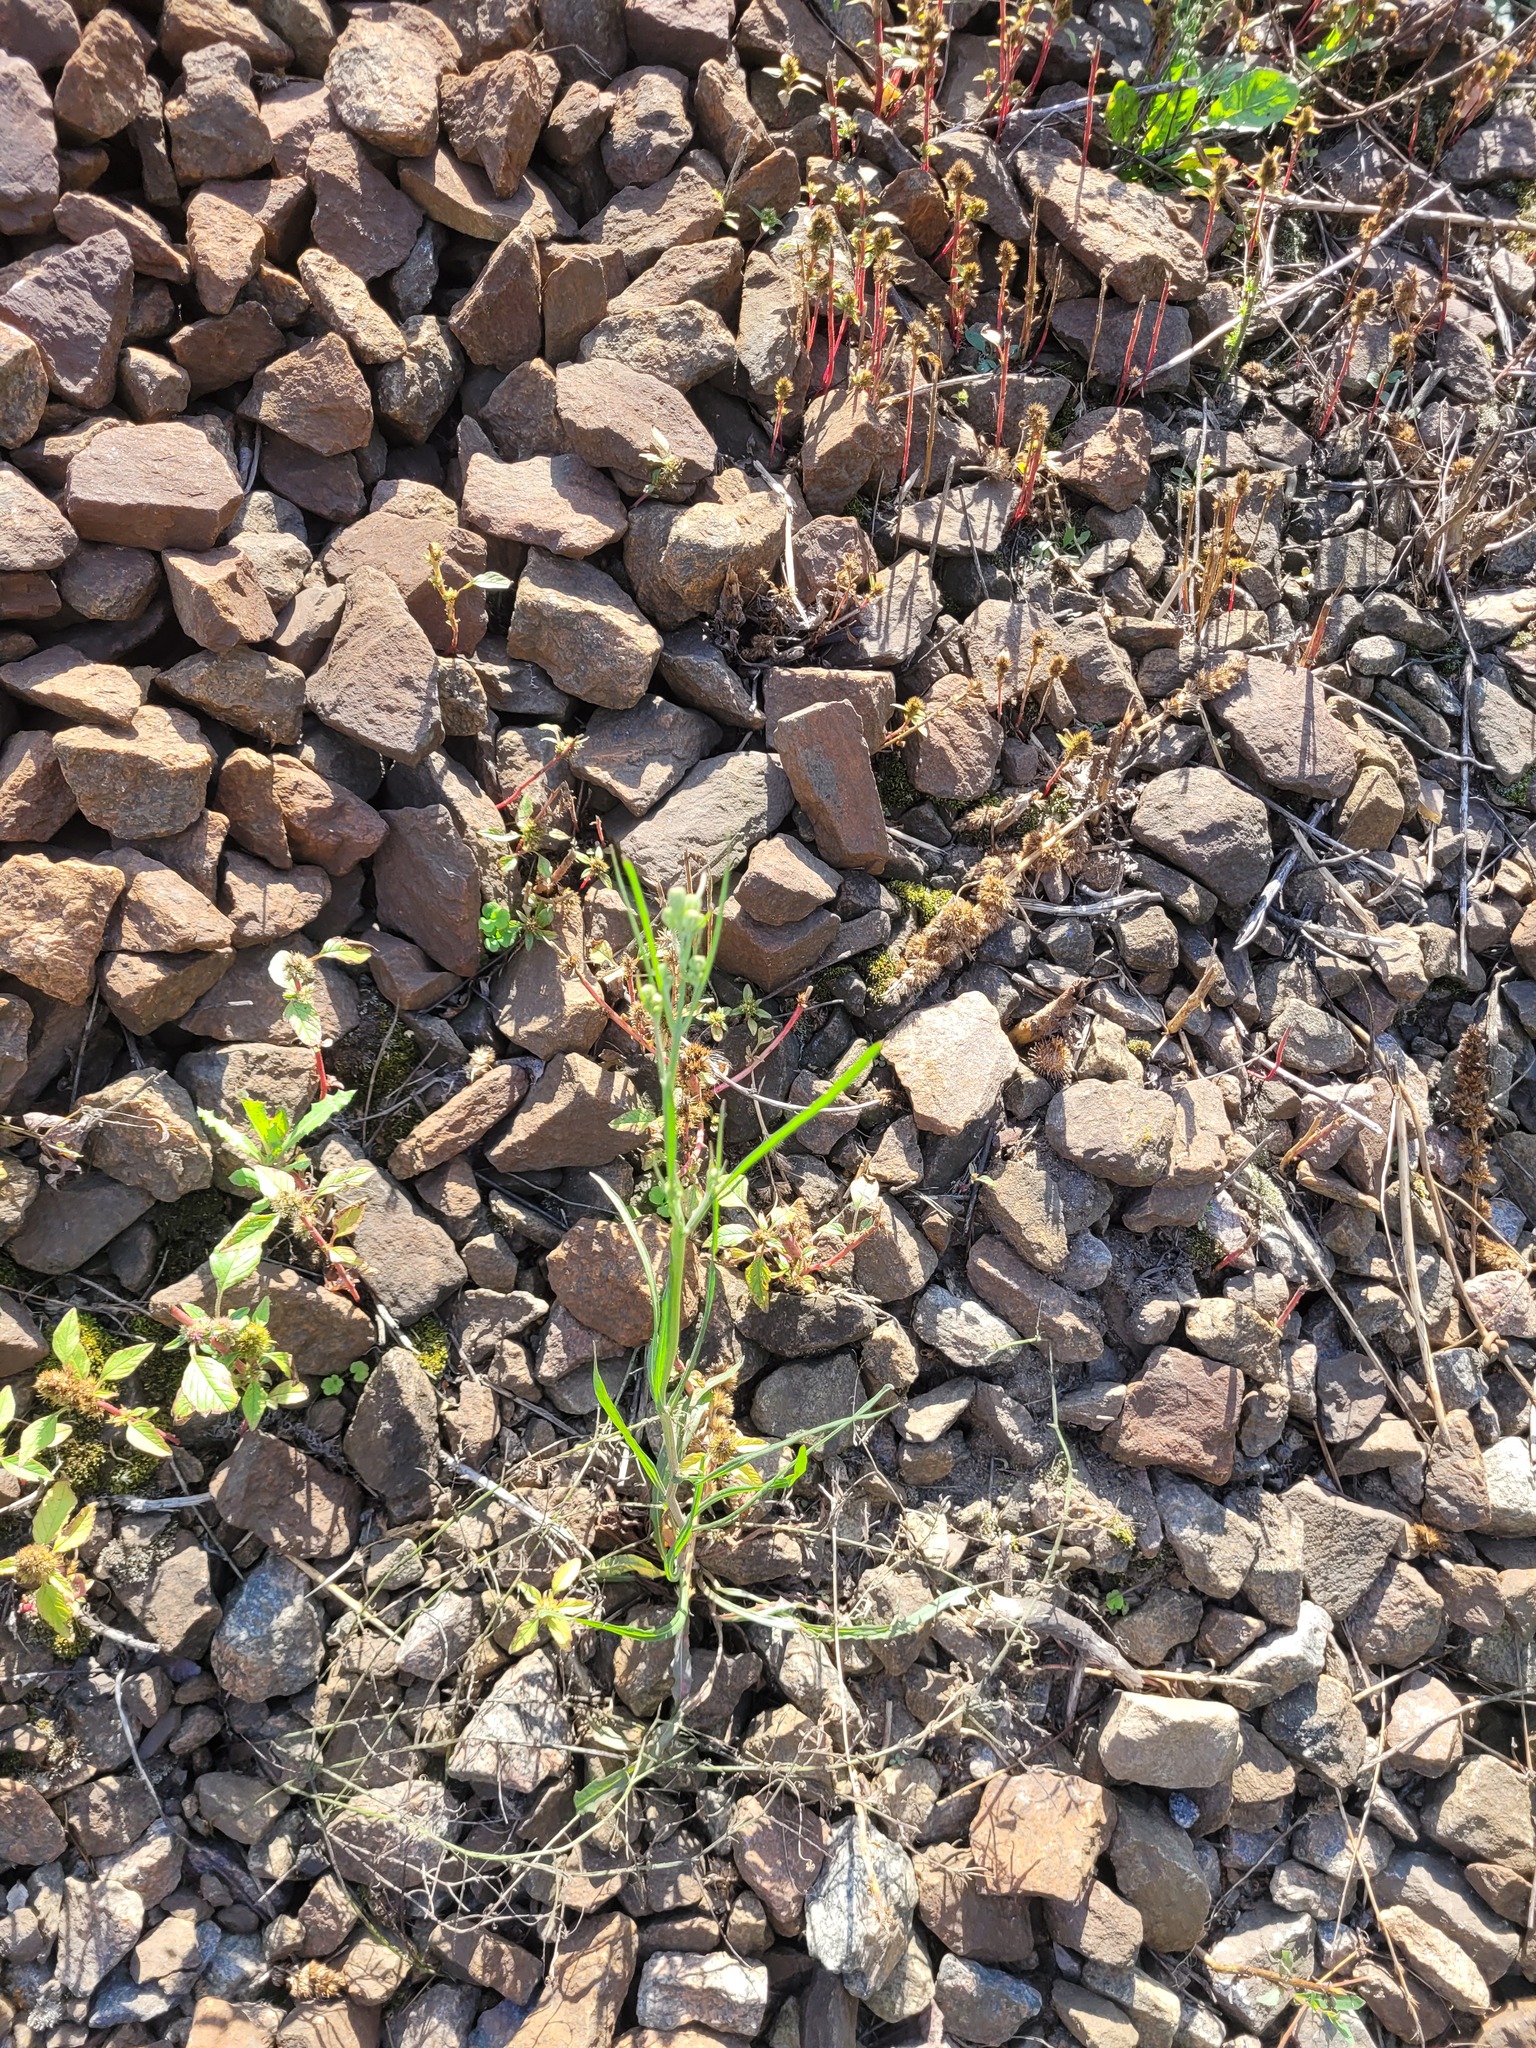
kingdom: Plantae
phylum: Tracheophyta
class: Magnoliopsida
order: Asterales
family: Asteraceae
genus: Crepis
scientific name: Crepis tectorum
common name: Narrow-leaved hawk's-beard
